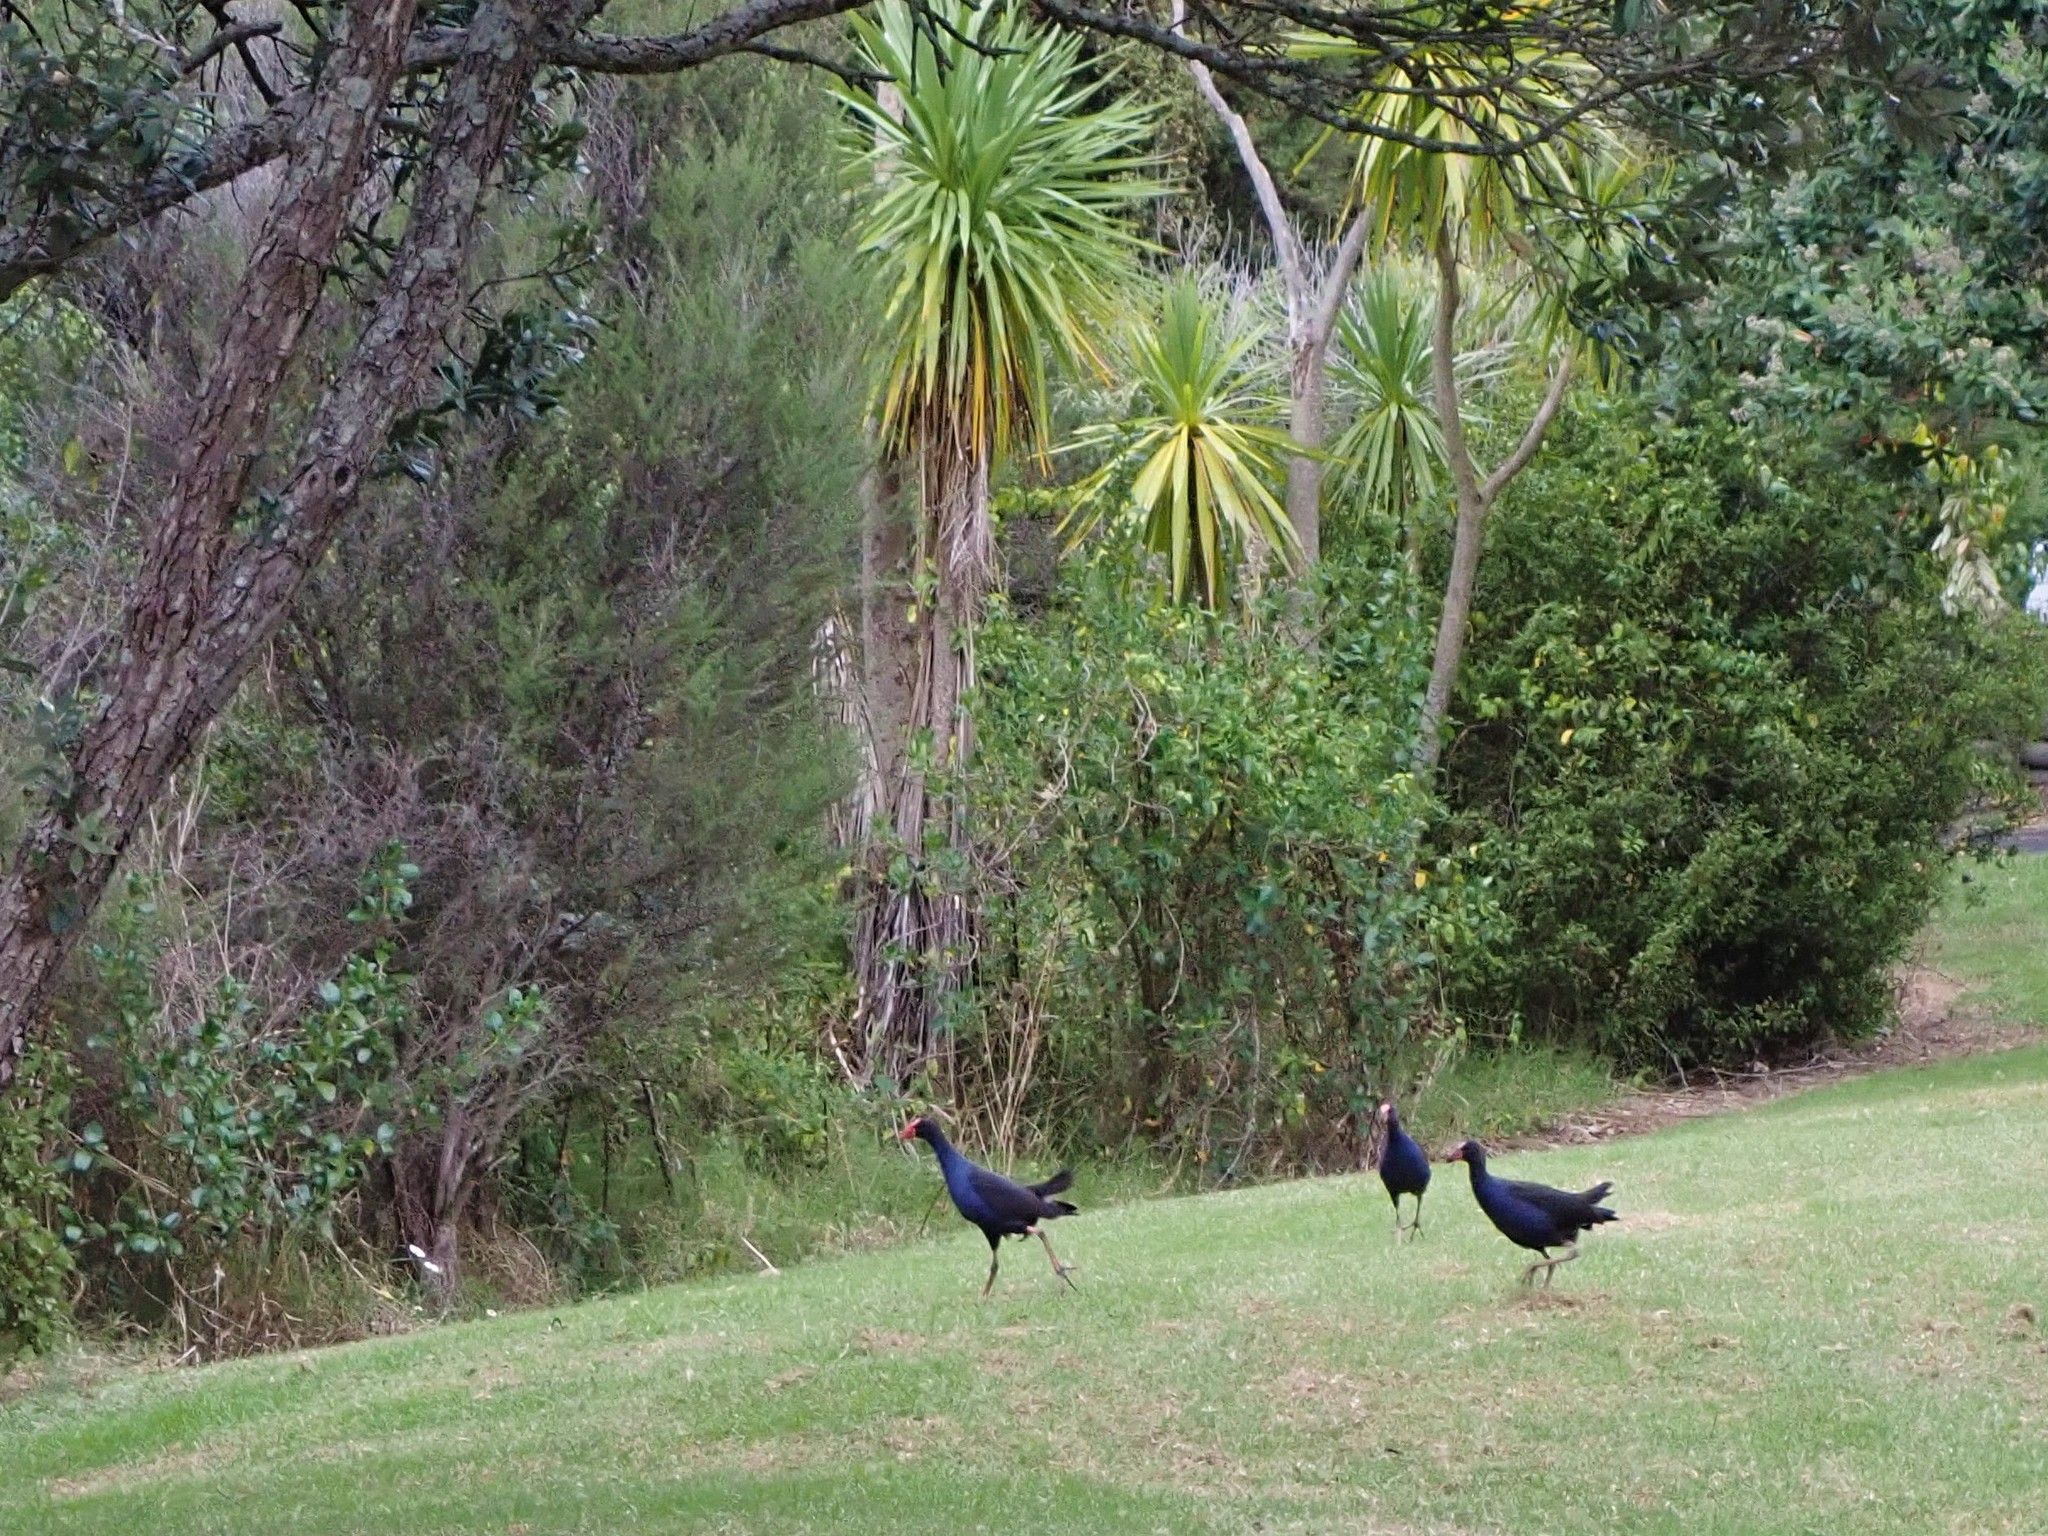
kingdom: Animalia
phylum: Chordata
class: Aves
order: Gruiformes
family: Rallidae
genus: Porphyrio
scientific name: Porphyrio melanotus
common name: Australasian swamphen
